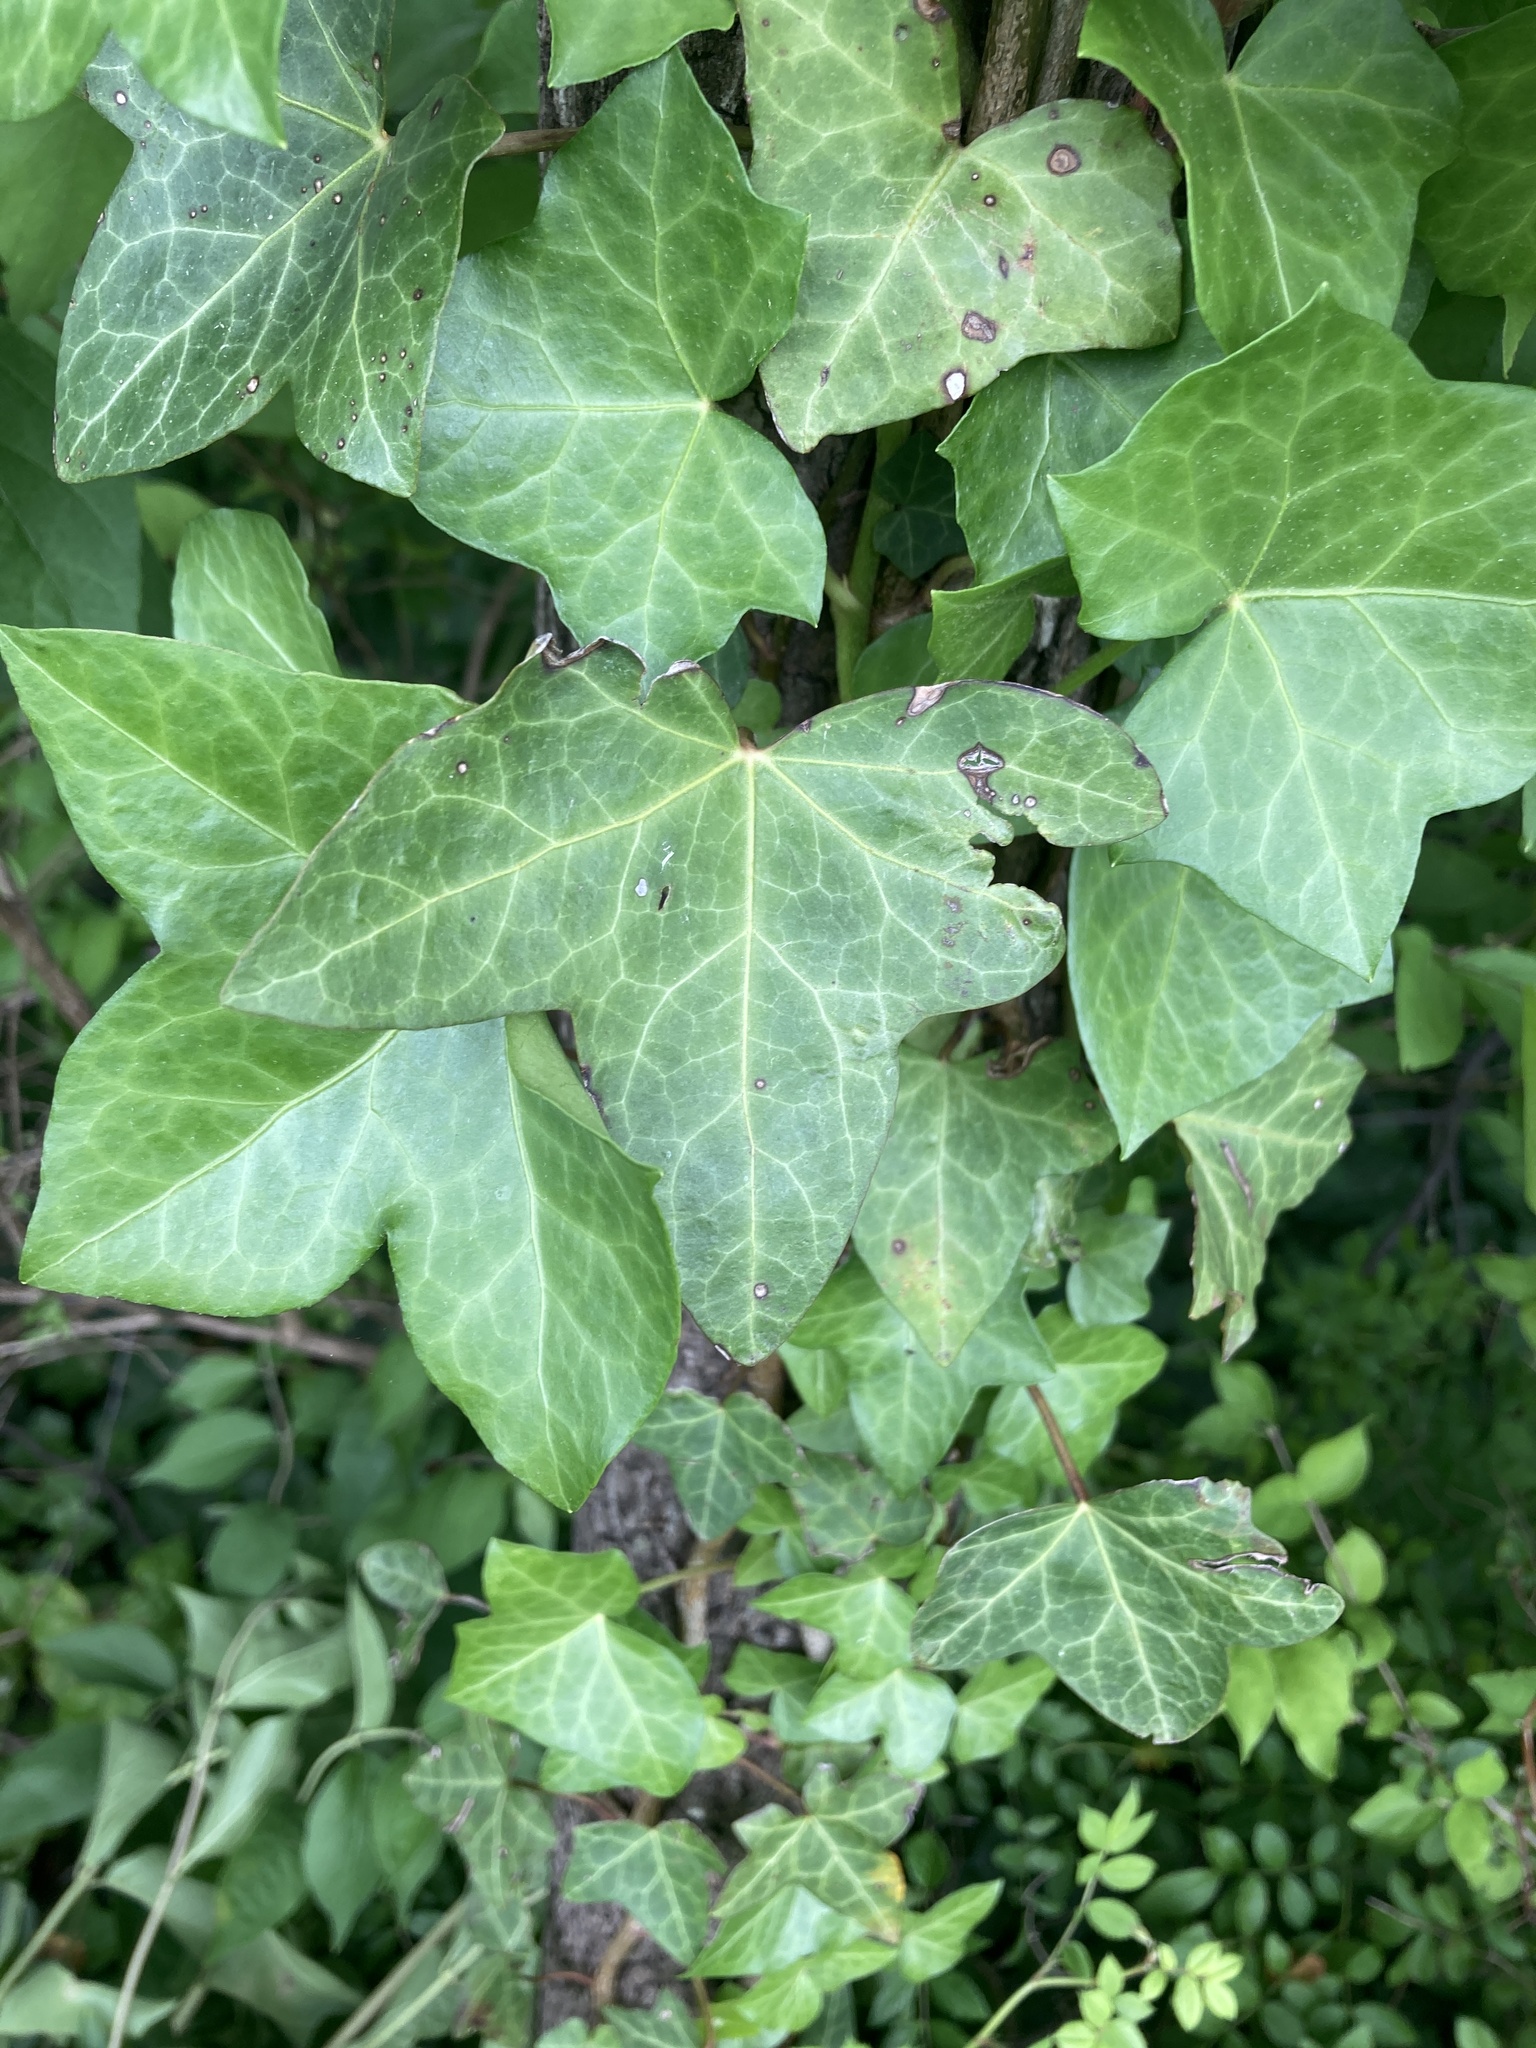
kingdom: Plantae
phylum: Tracheophyta
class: Magnoliopsida
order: Apiales
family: Araliaceae
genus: Hedera
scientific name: Hedera helix
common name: Ivy
